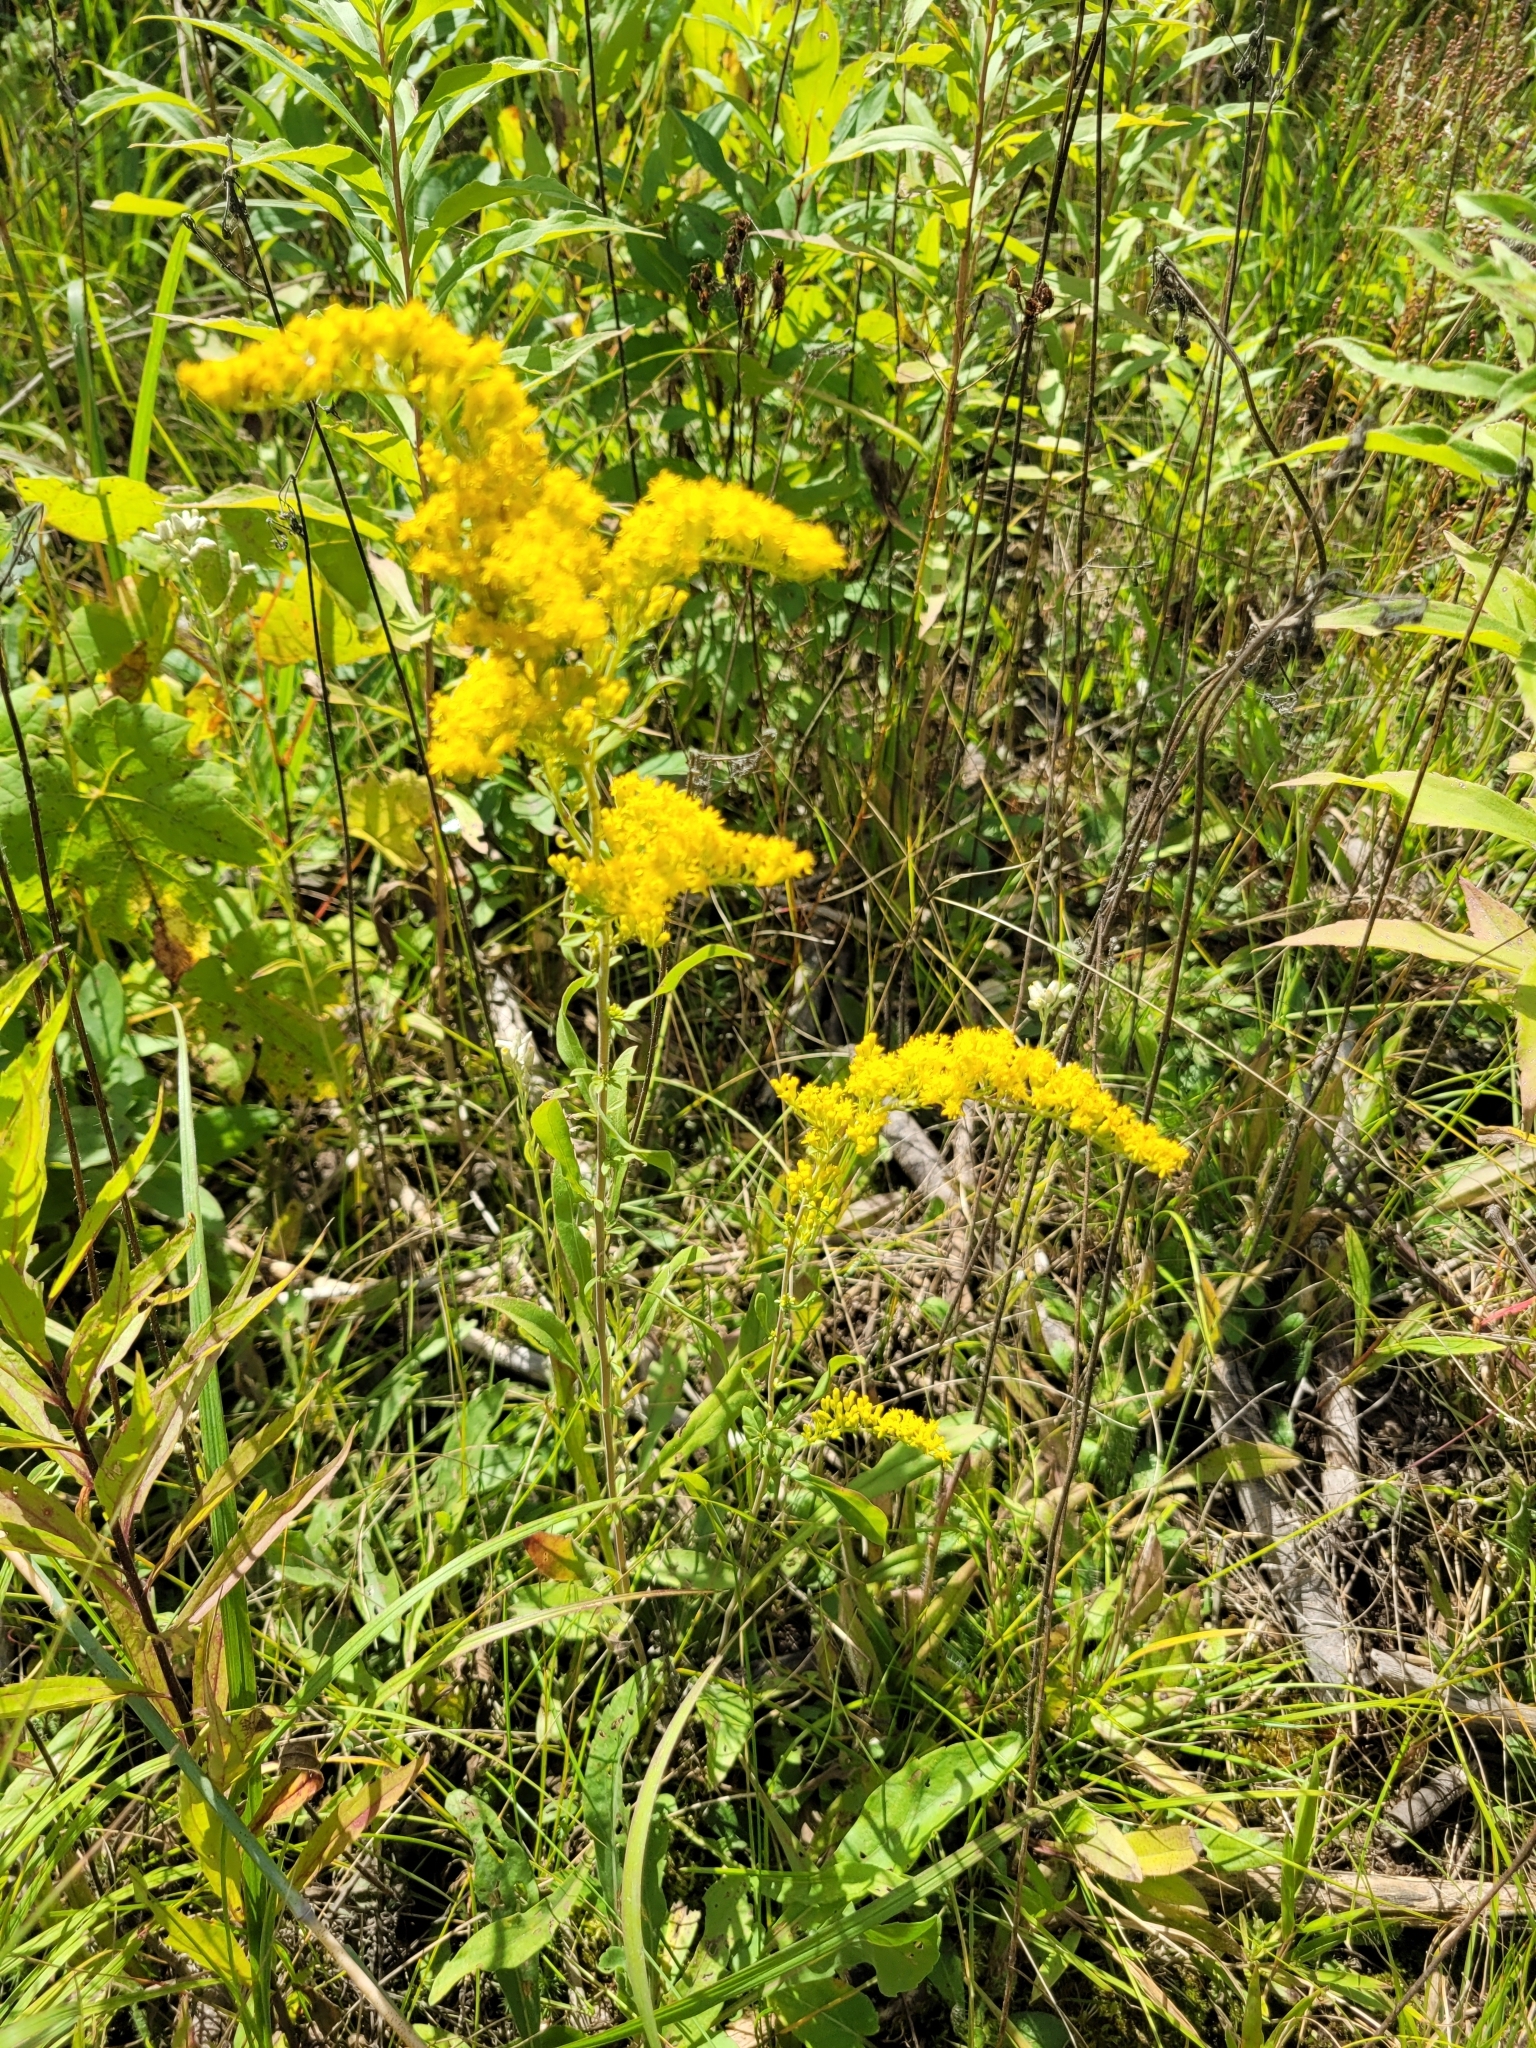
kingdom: Plantae
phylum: Tracheophyta
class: Magnoliopsida
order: Asterales
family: Asteraceae
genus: Solidago
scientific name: Solidago nemoralis
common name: Grey goldenrod
